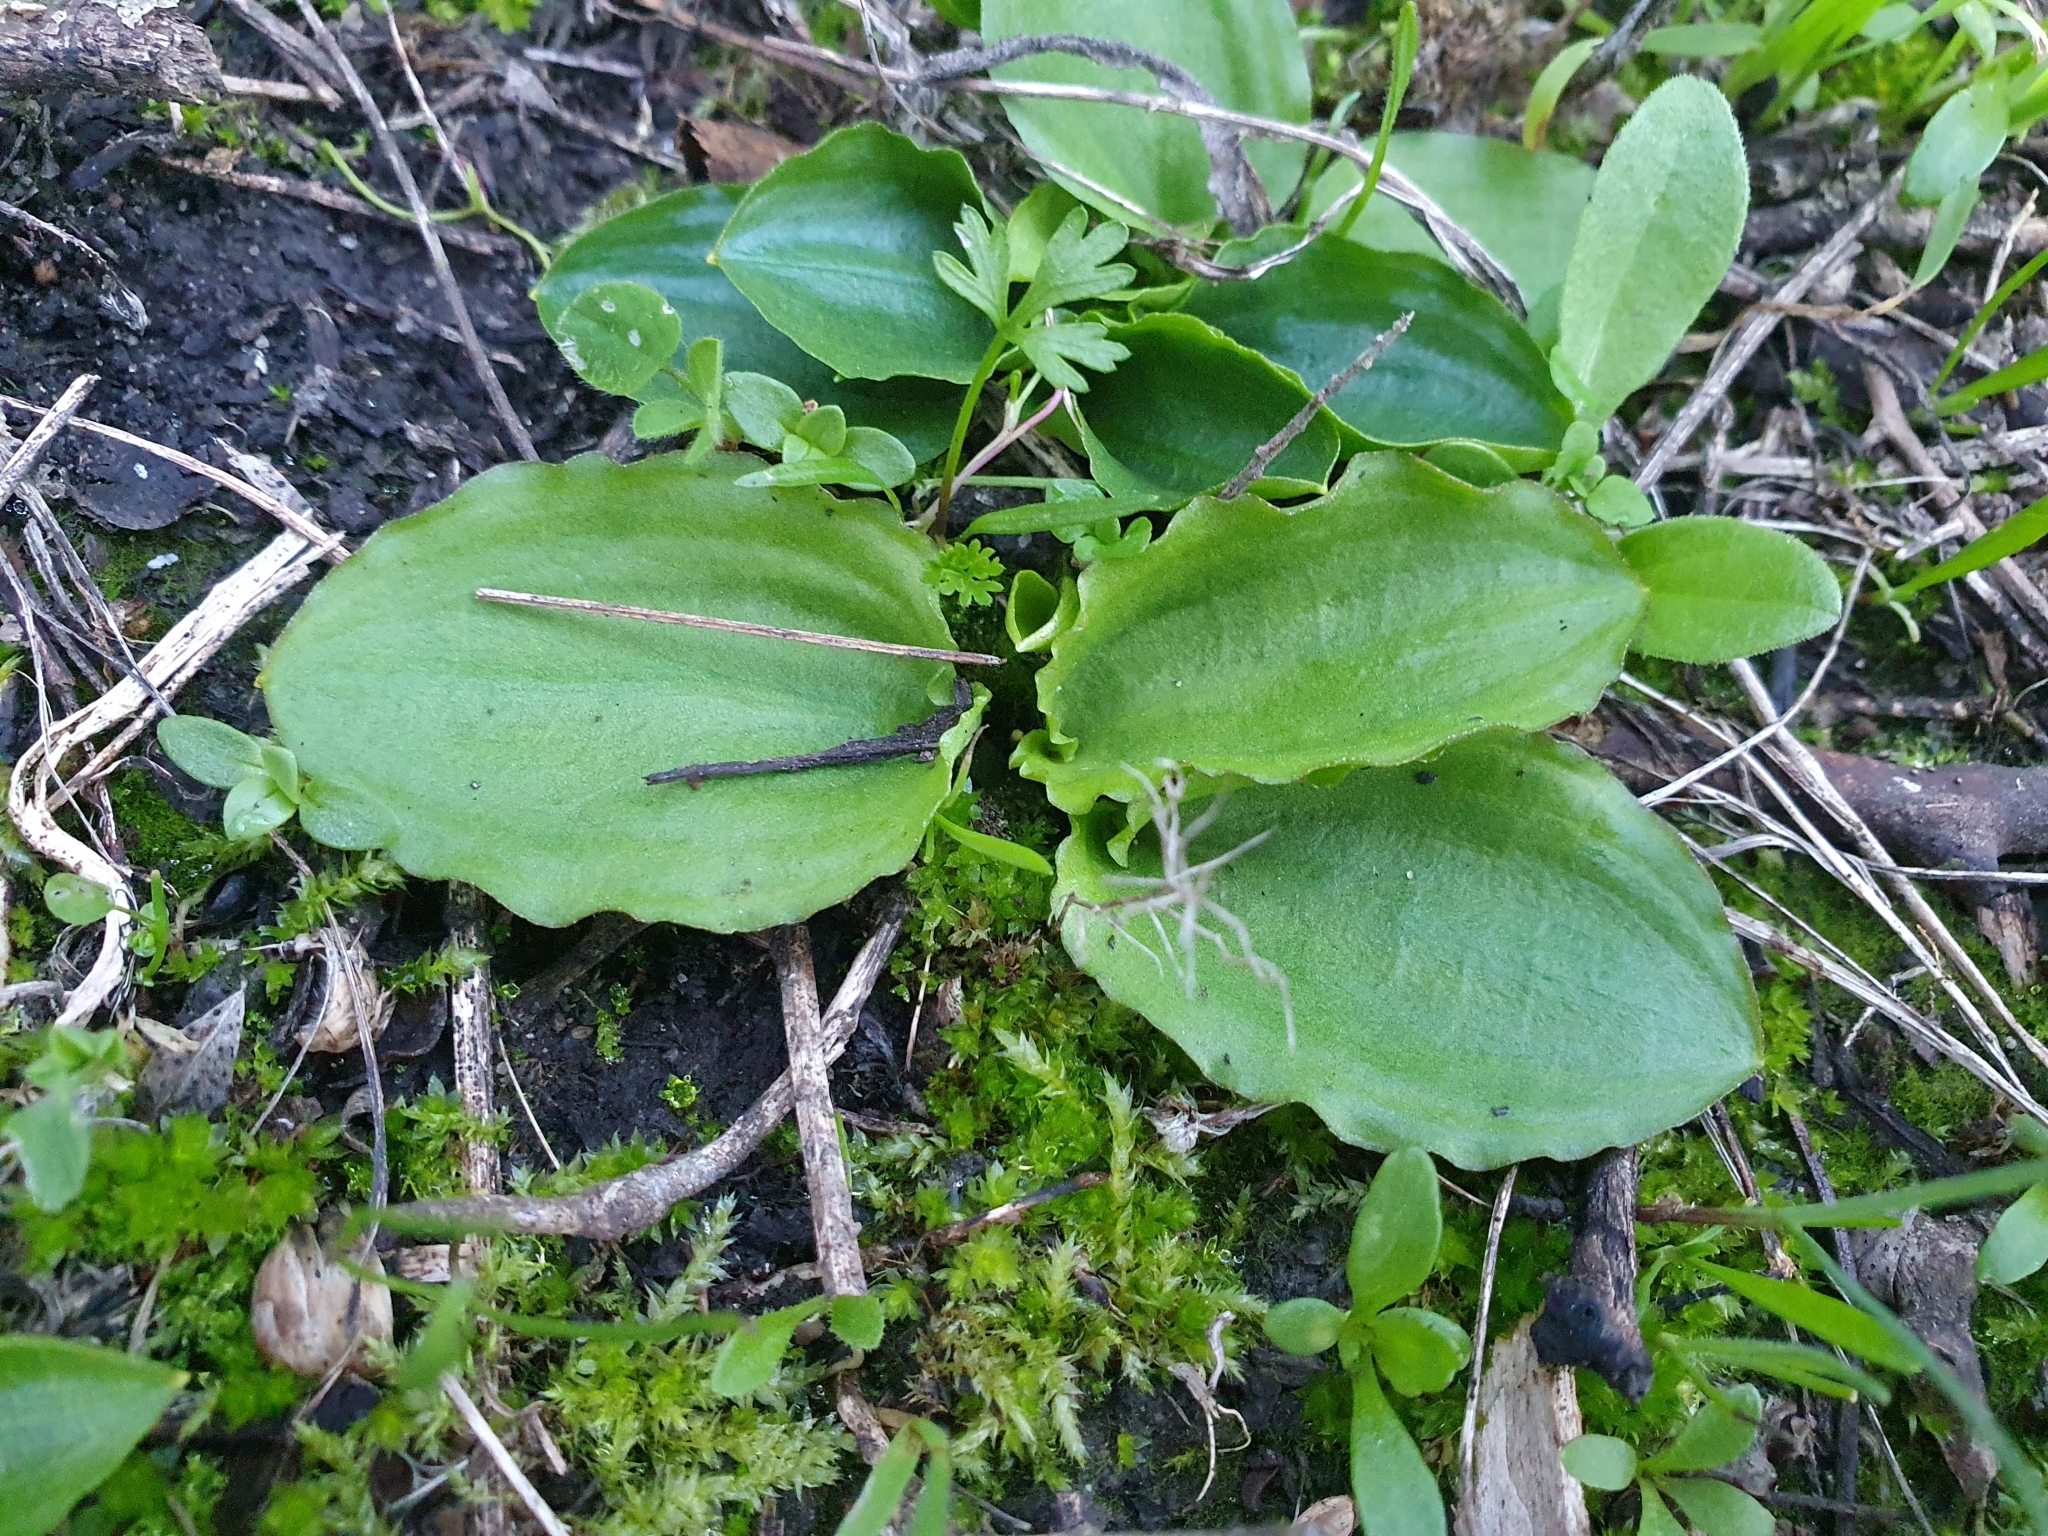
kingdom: Plantae
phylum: Tracheophyta
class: Liliopsida
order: Alismatales
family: Araceae
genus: Ambrosina
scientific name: Ambrosina bassii
